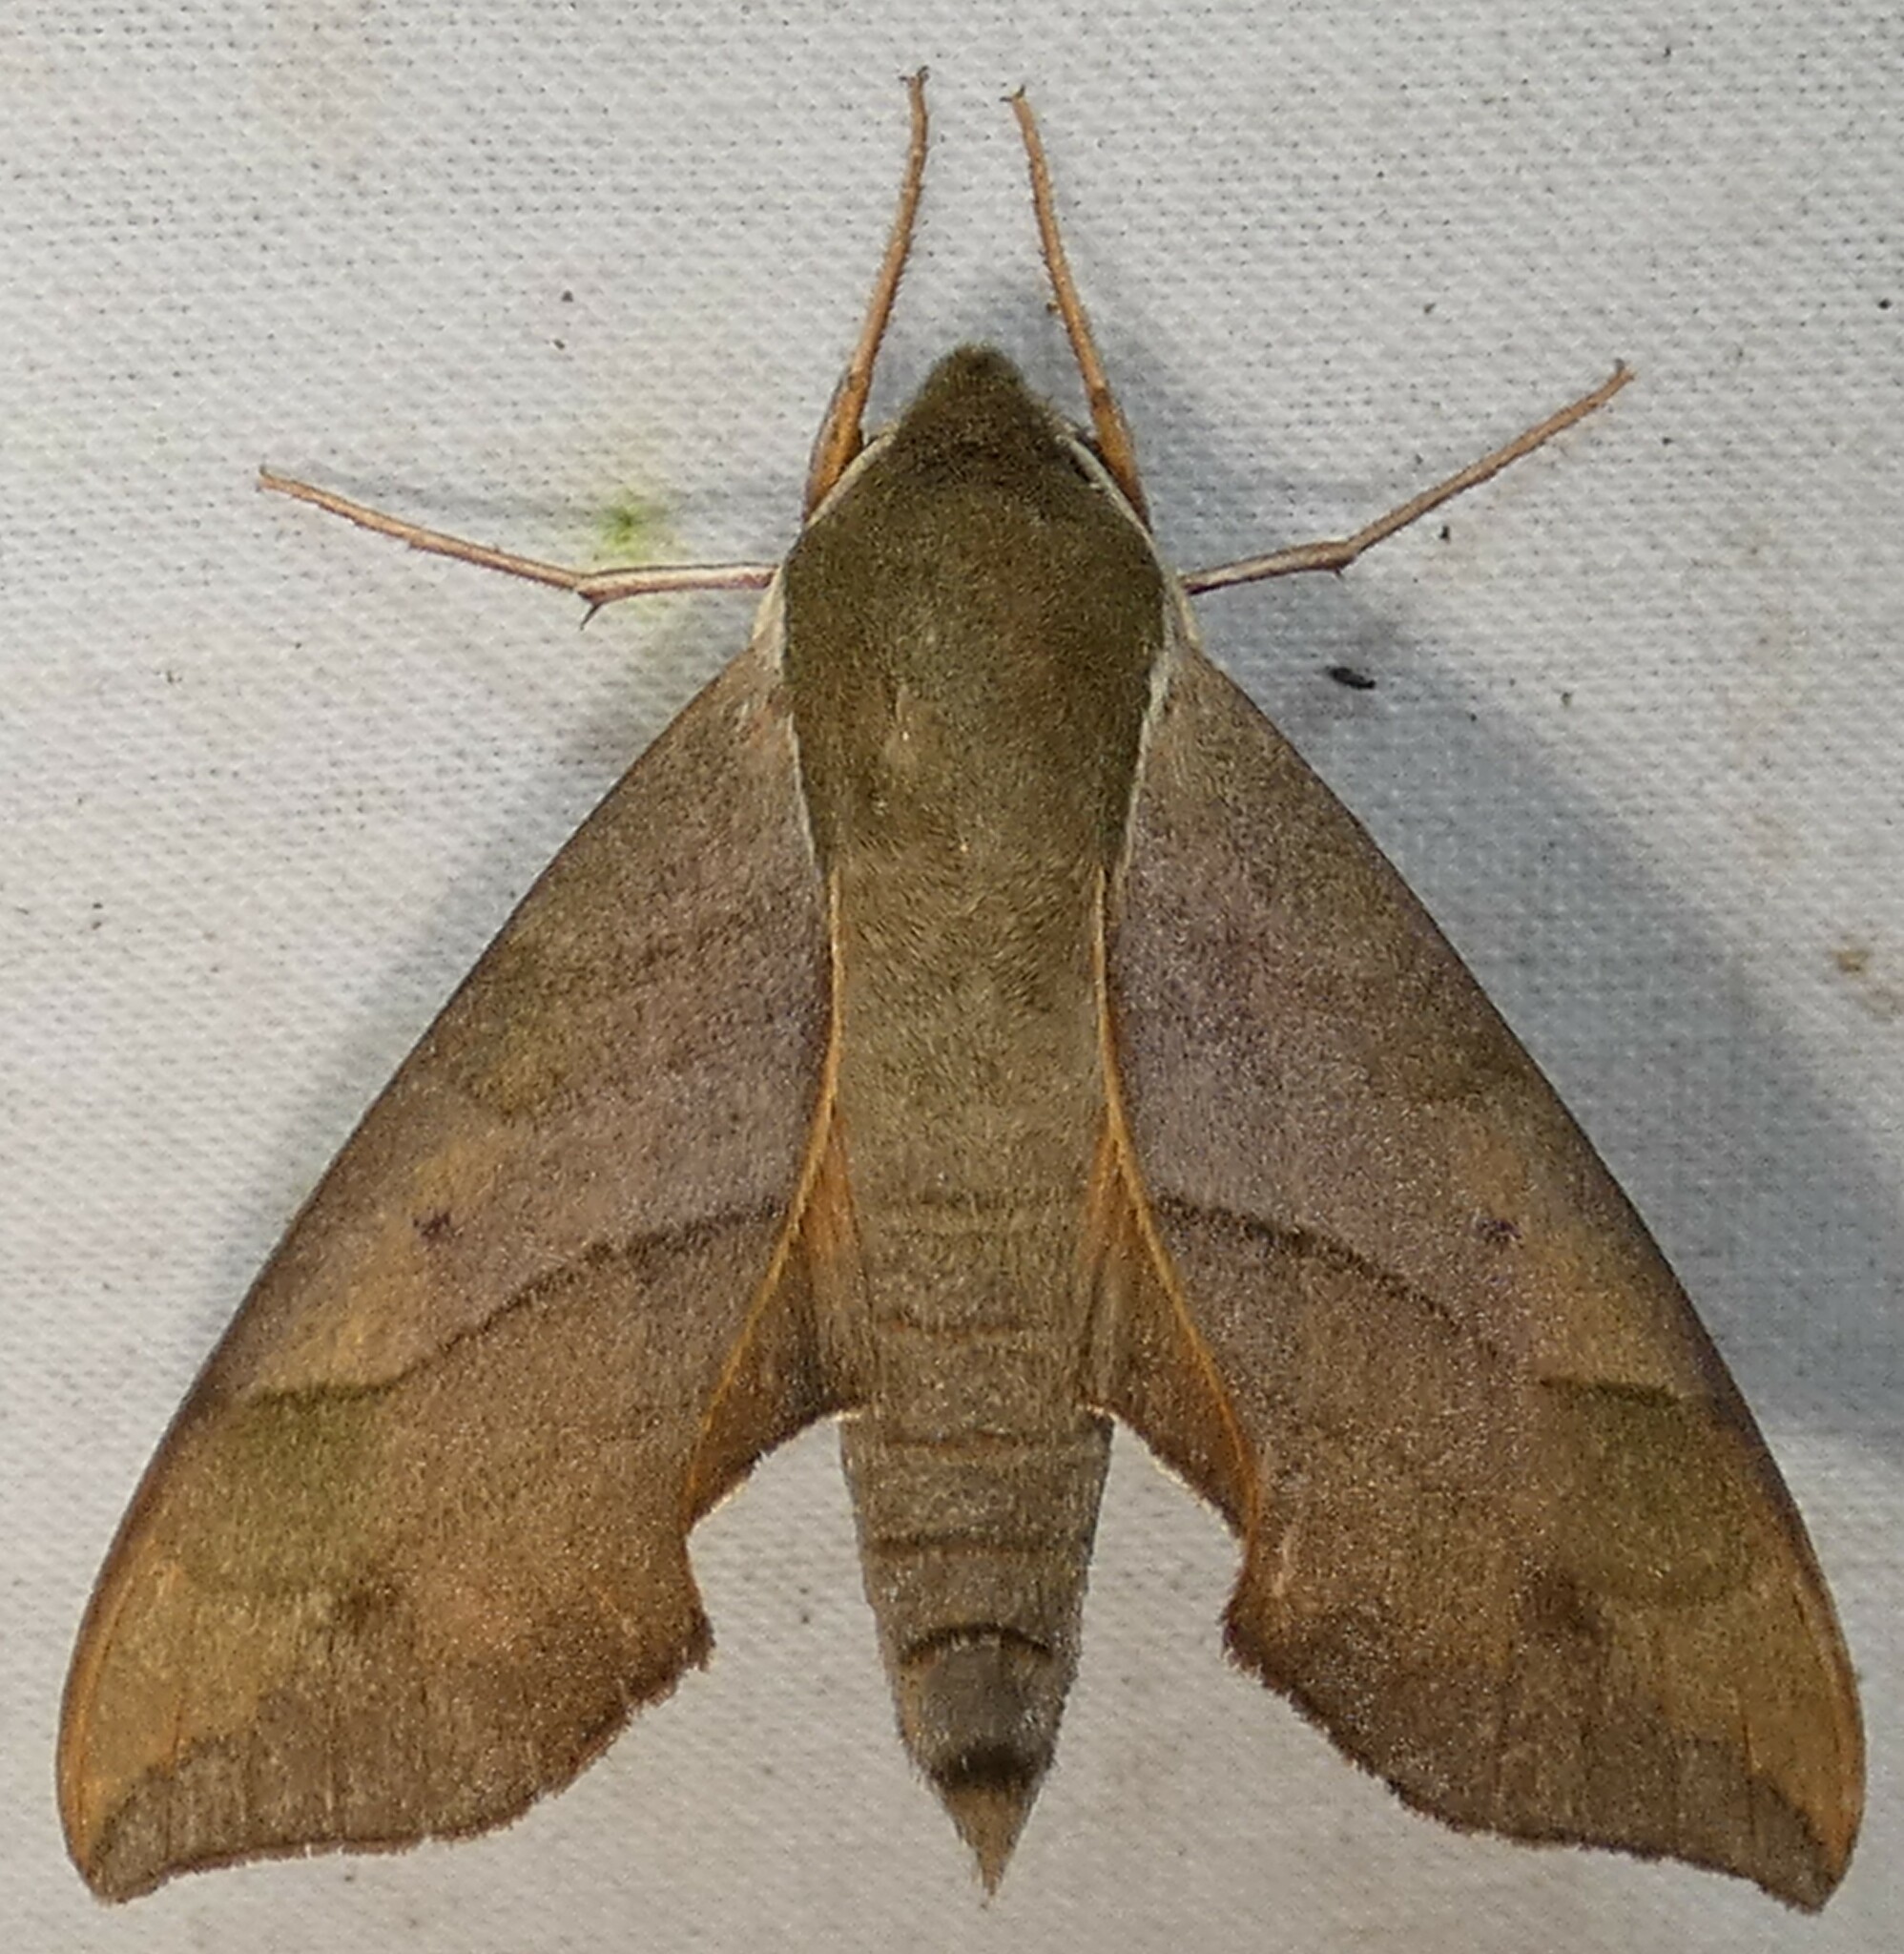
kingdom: Animalia
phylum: Arthropoda
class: Insecta
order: Lepidoptera
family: Sphingidae
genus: Darapsa
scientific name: Darapsa myron
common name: Hog sphinx
